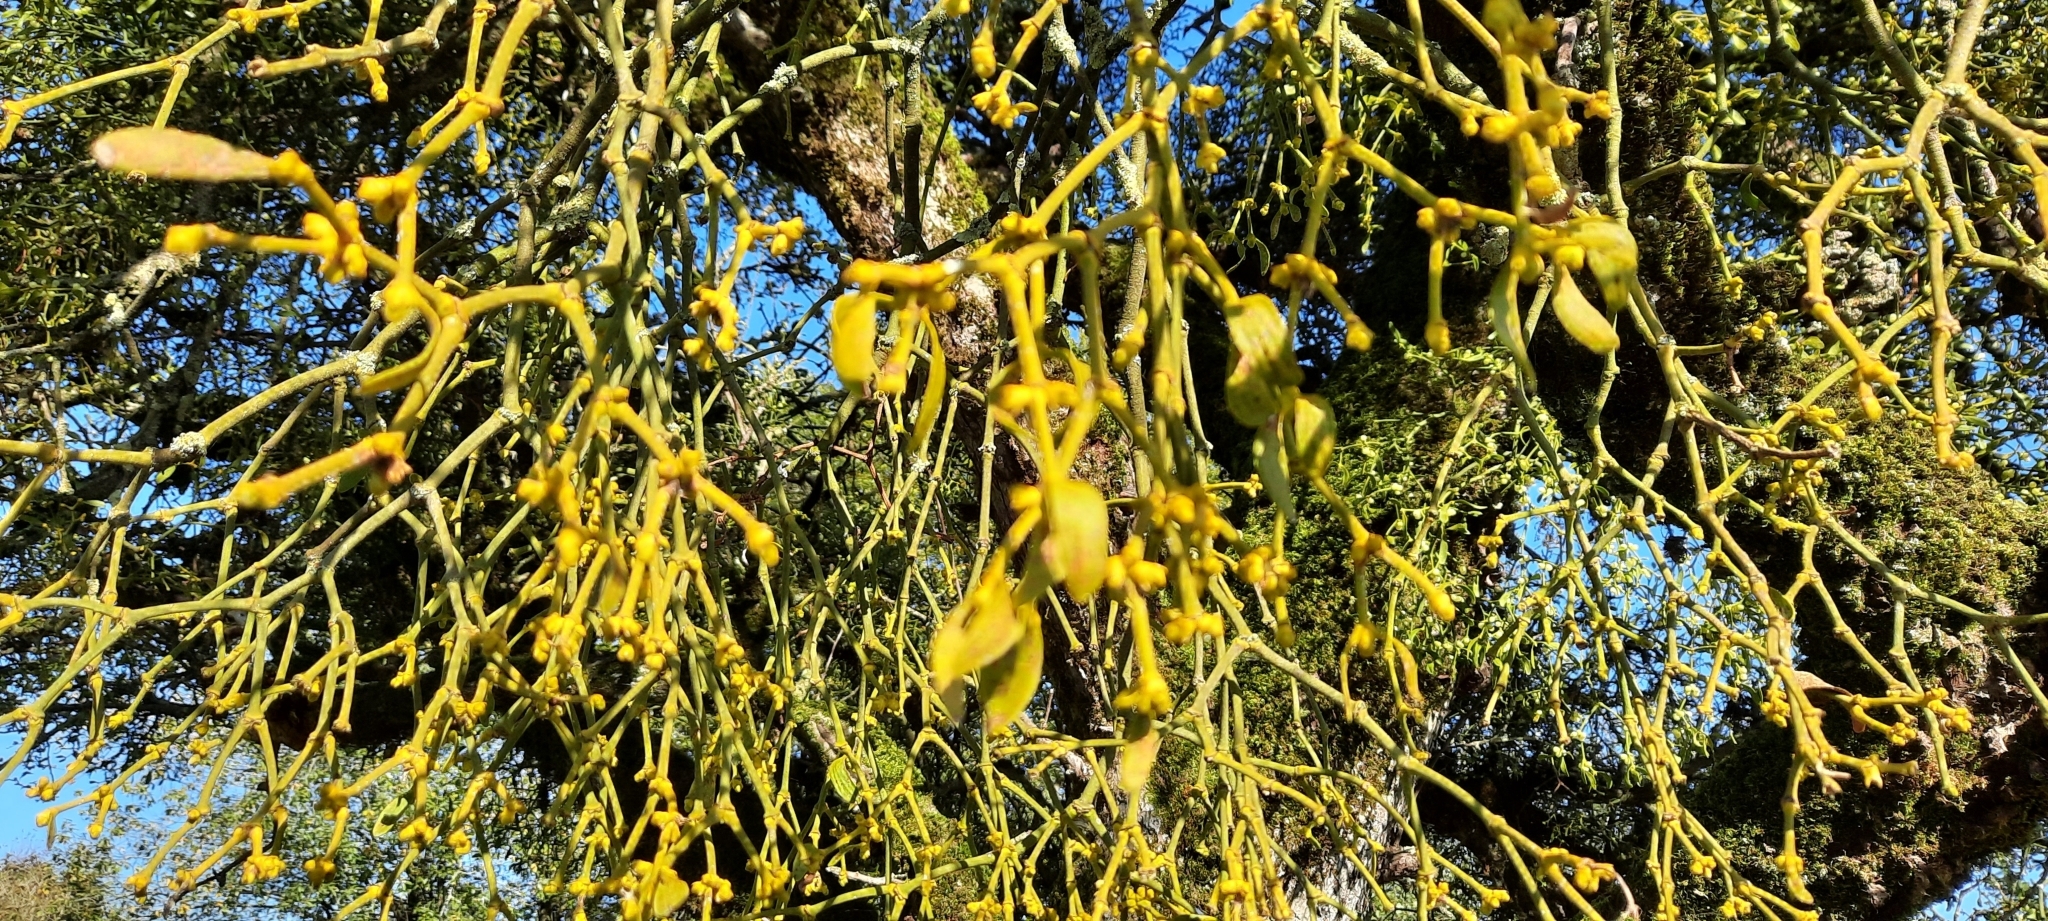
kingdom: Plantae
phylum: Tracheophyta
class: Magnoliopsida
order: Santalales
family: Viscaceae
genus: Viscum
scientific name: Viscum album
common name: Mistletoe
